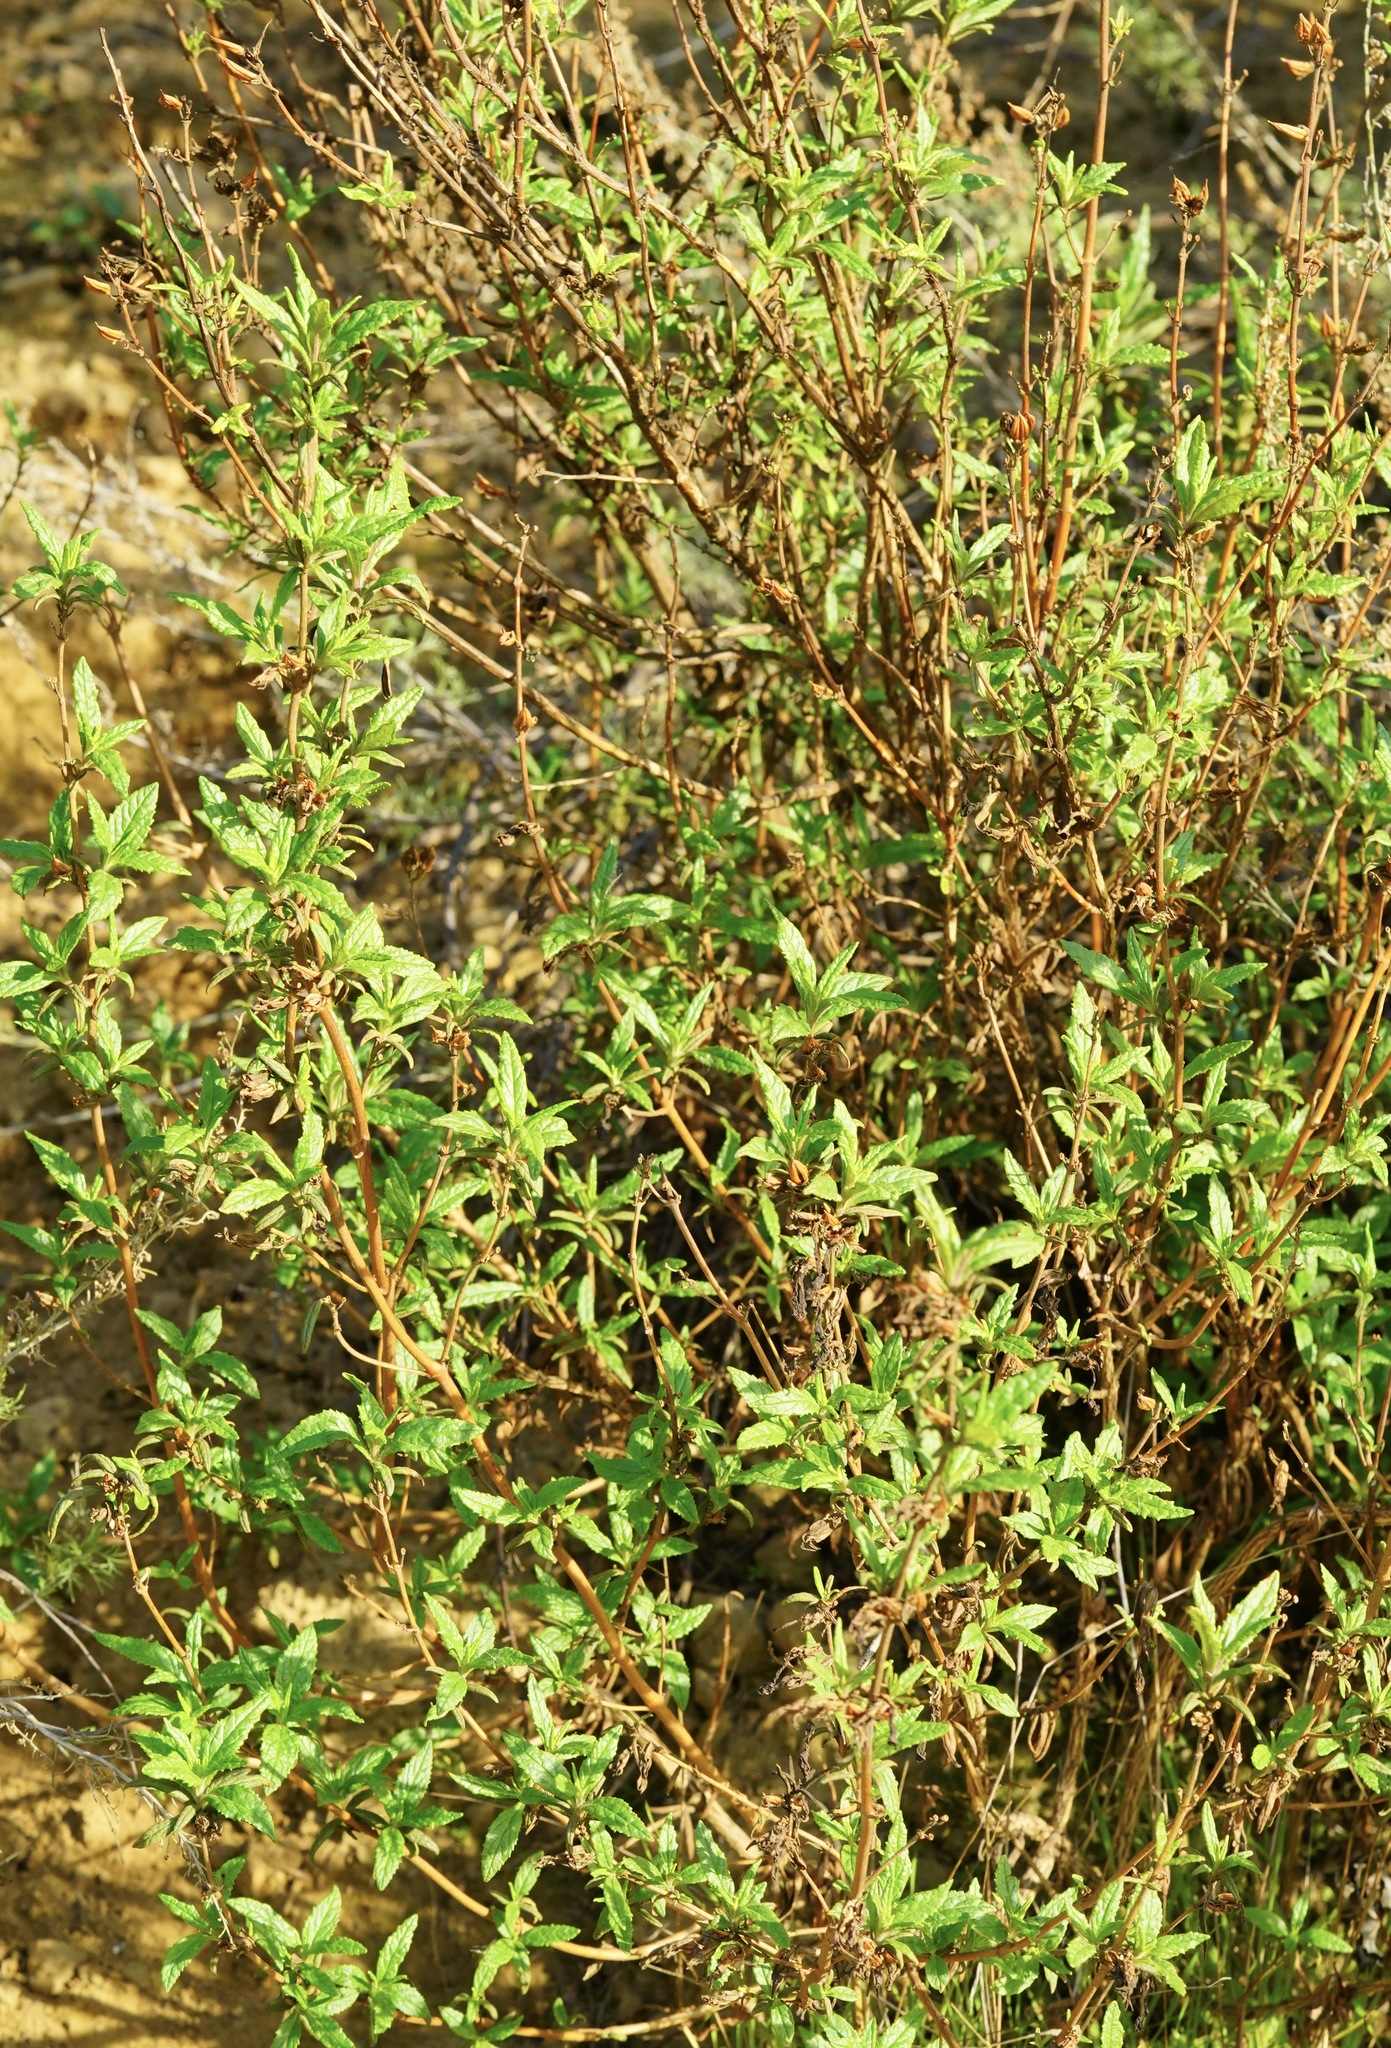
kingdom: Plantae
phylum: Tracheophyta
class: Magnoliopsida
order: Lamiales
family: Phrymaceae
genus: Diplacus
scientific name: Diplacus aurantiacus
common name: Bush monkey-flower
